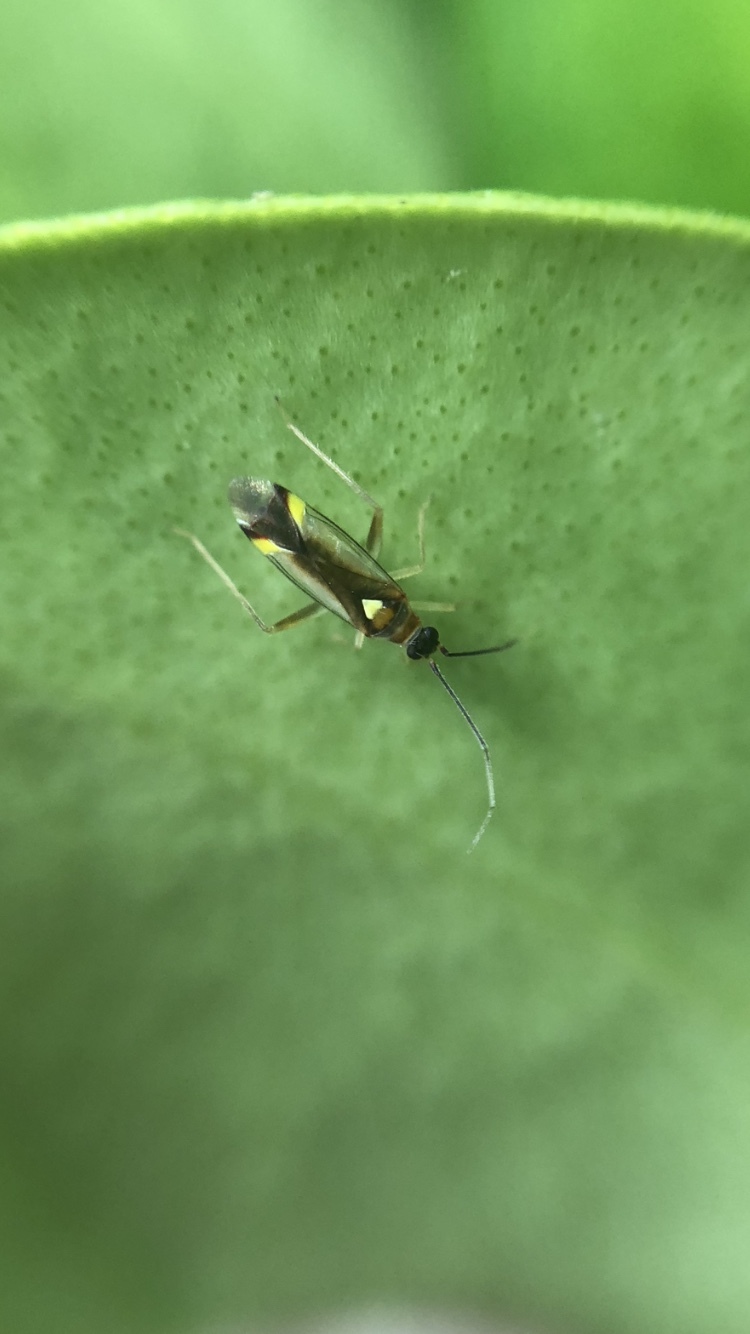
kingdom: Animalia
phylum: Arthropoda
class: Insecta
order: Hemiptera
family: Miridae
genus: Campyloneura
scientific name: Campyloneura virgula
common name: Predatory bug
